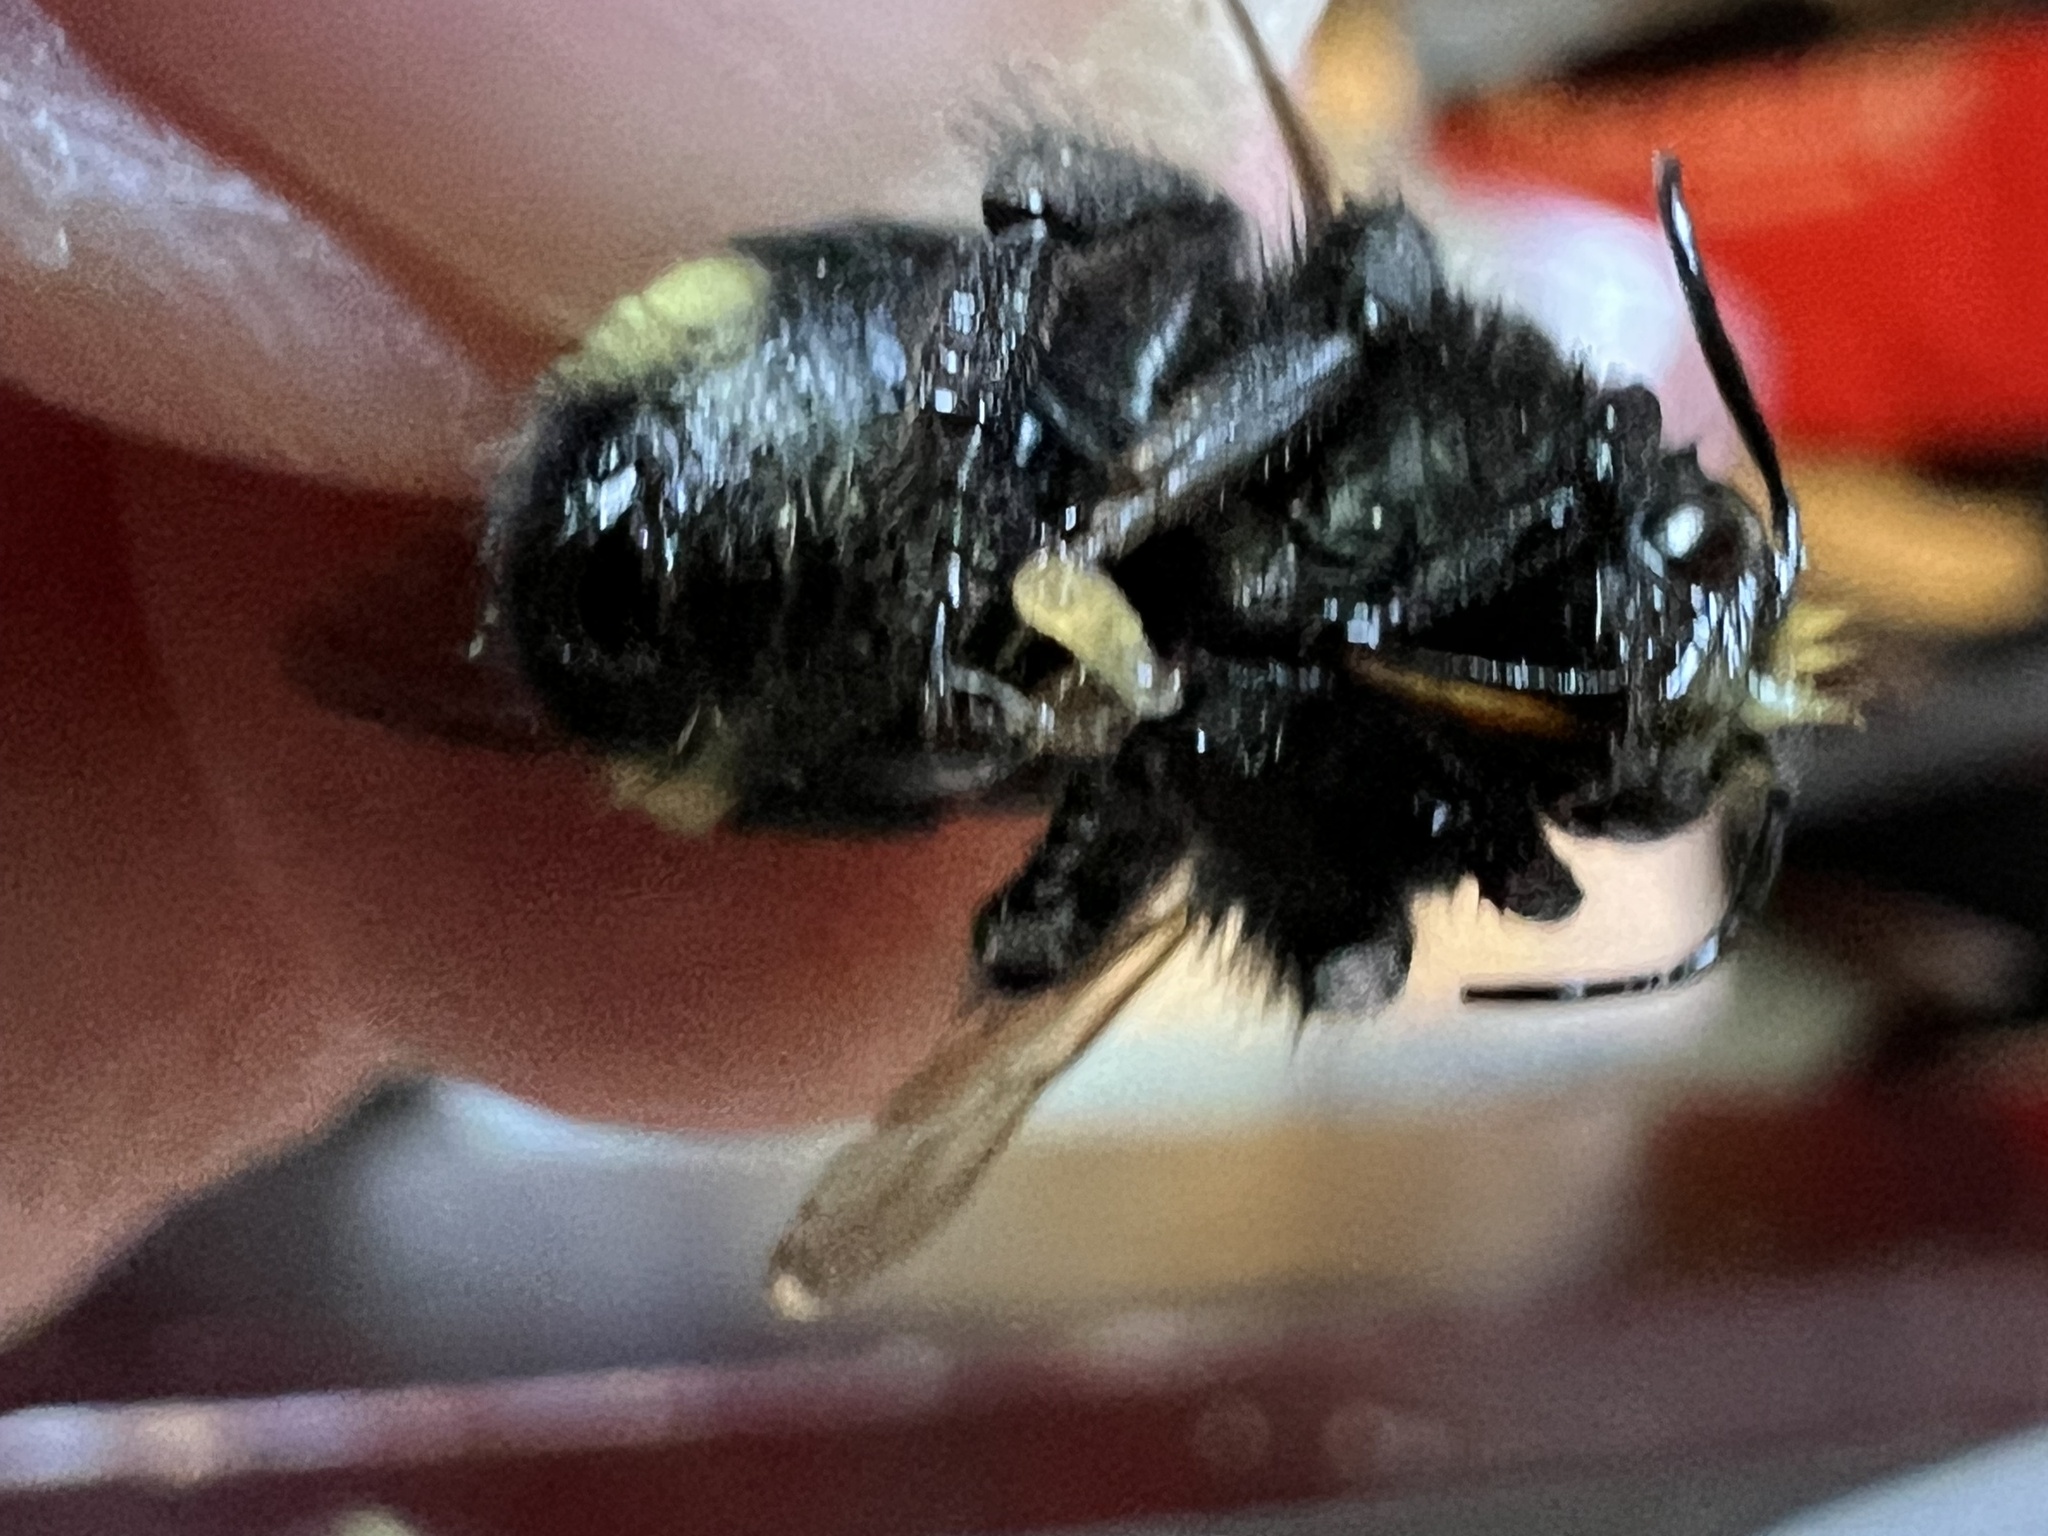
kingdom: Animalia
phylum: Arthropoda
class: Insecta
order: Hymenoptera
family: Apidae
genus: Bombus
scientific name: Bombus caliginosus
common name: Obscure bumble bee
